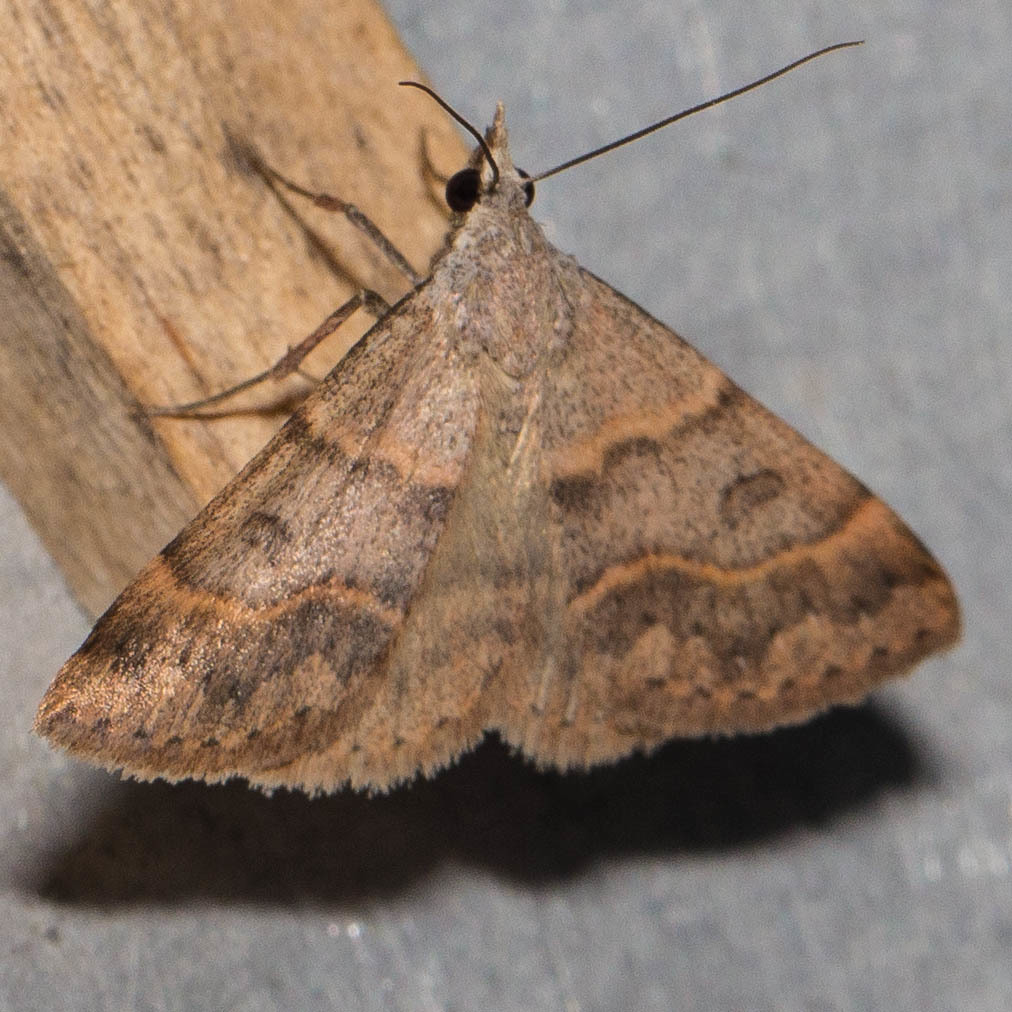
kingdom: Animalia
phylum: Arthropoda
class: Insecta
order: Lepidoptera
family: Erebidae
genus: Hemeroplanis
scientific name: Hemeroplanis historialis
